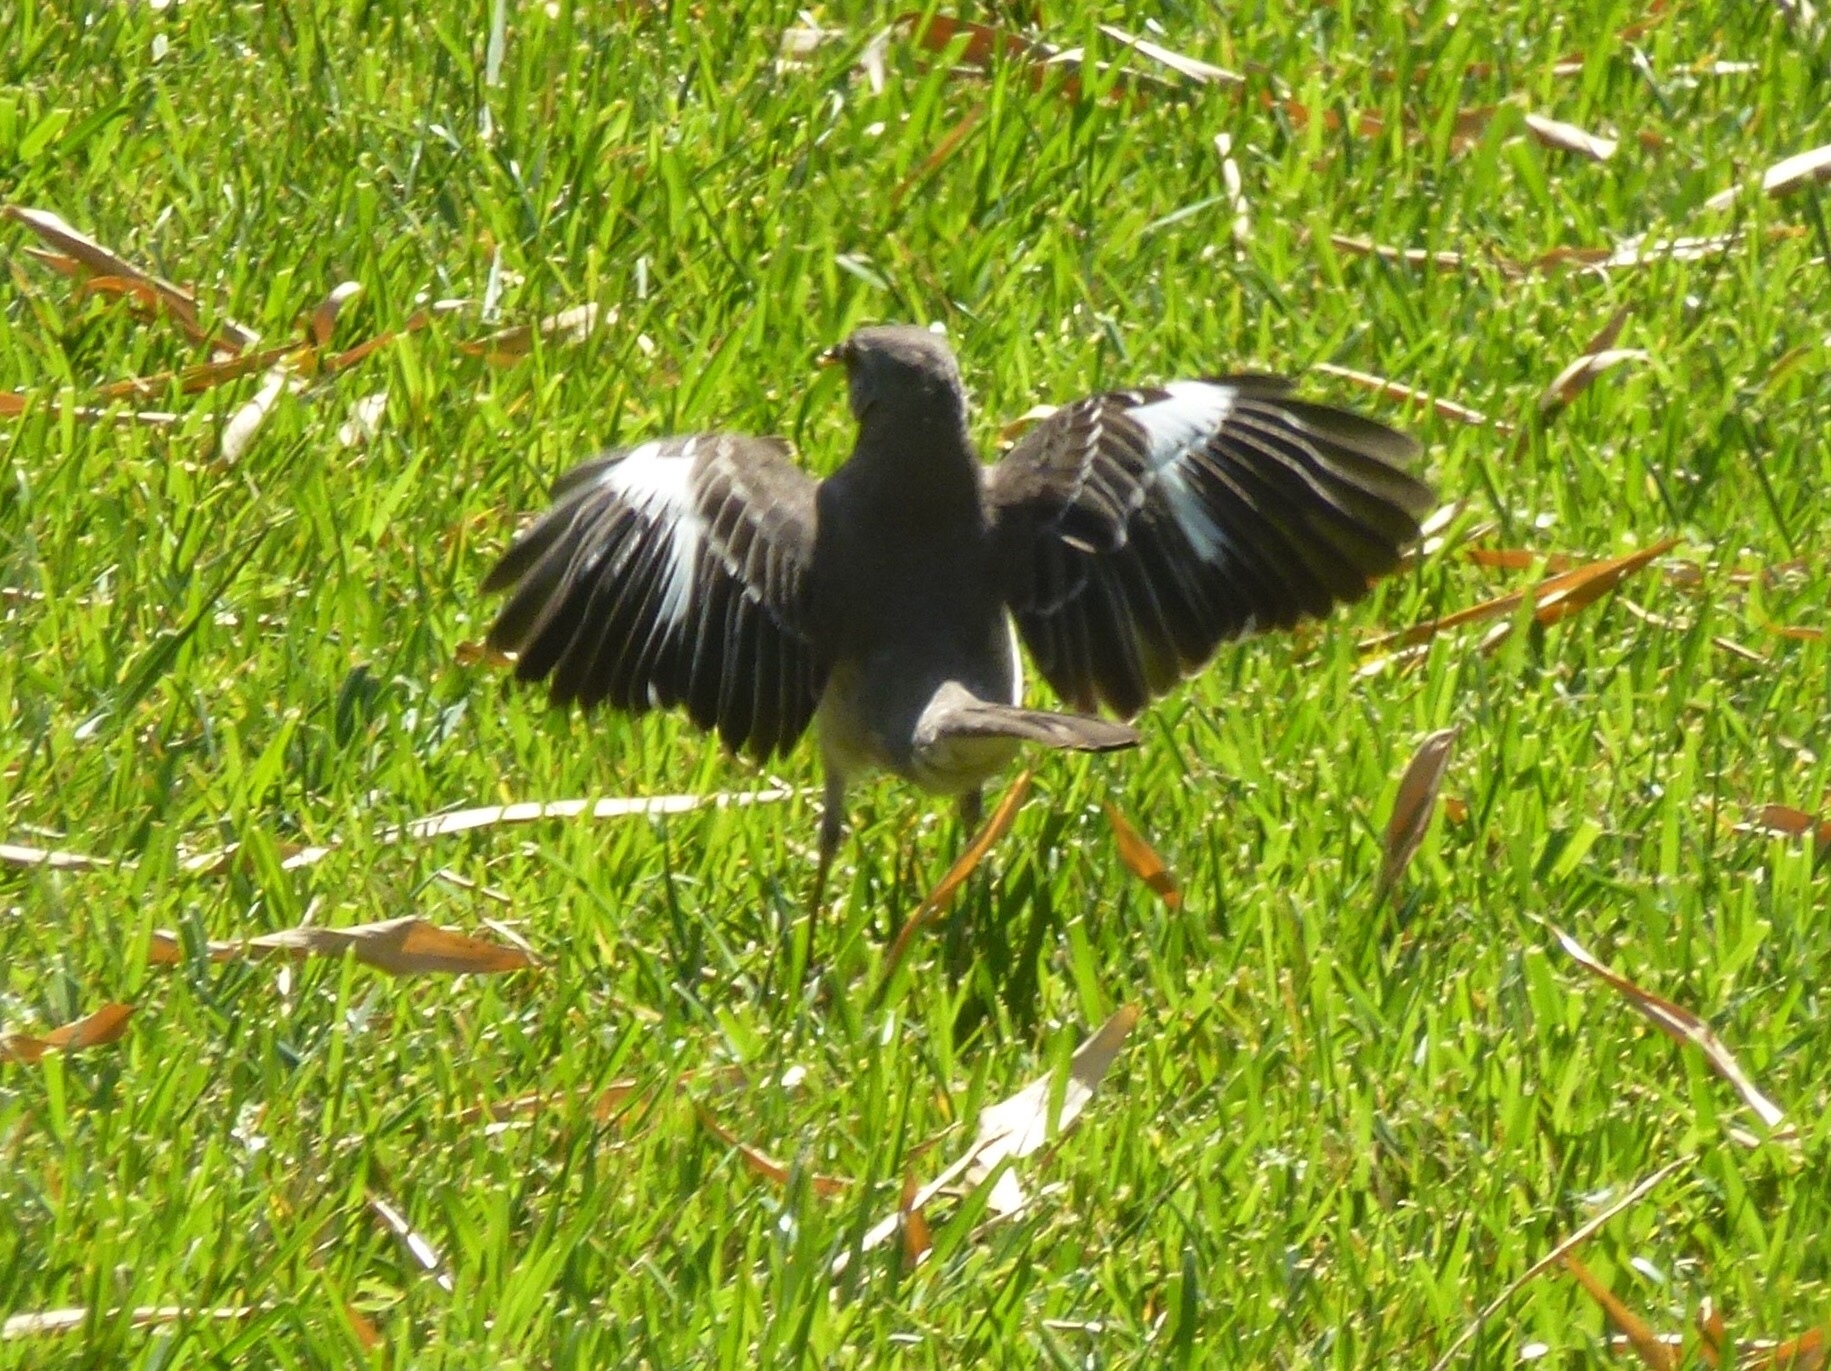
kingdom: Animalia
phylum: Chordata
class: Aves
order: Passeriformes
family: Mimidae
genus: Mimus
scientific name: Mimus polyglottos
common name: Northern mockingbird
